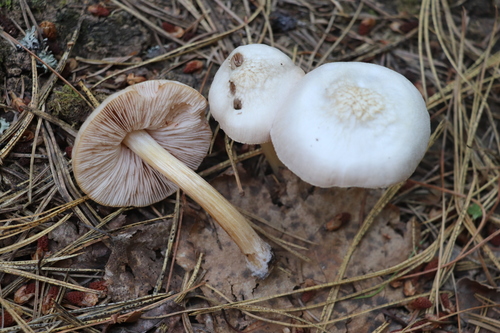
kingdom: Fungi
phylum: Basidiomycota
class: Agaricomycetes
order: Agaricales
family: Pluteaceae
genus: Pluteus
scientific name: Pluteus plautus
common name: Satin shield
